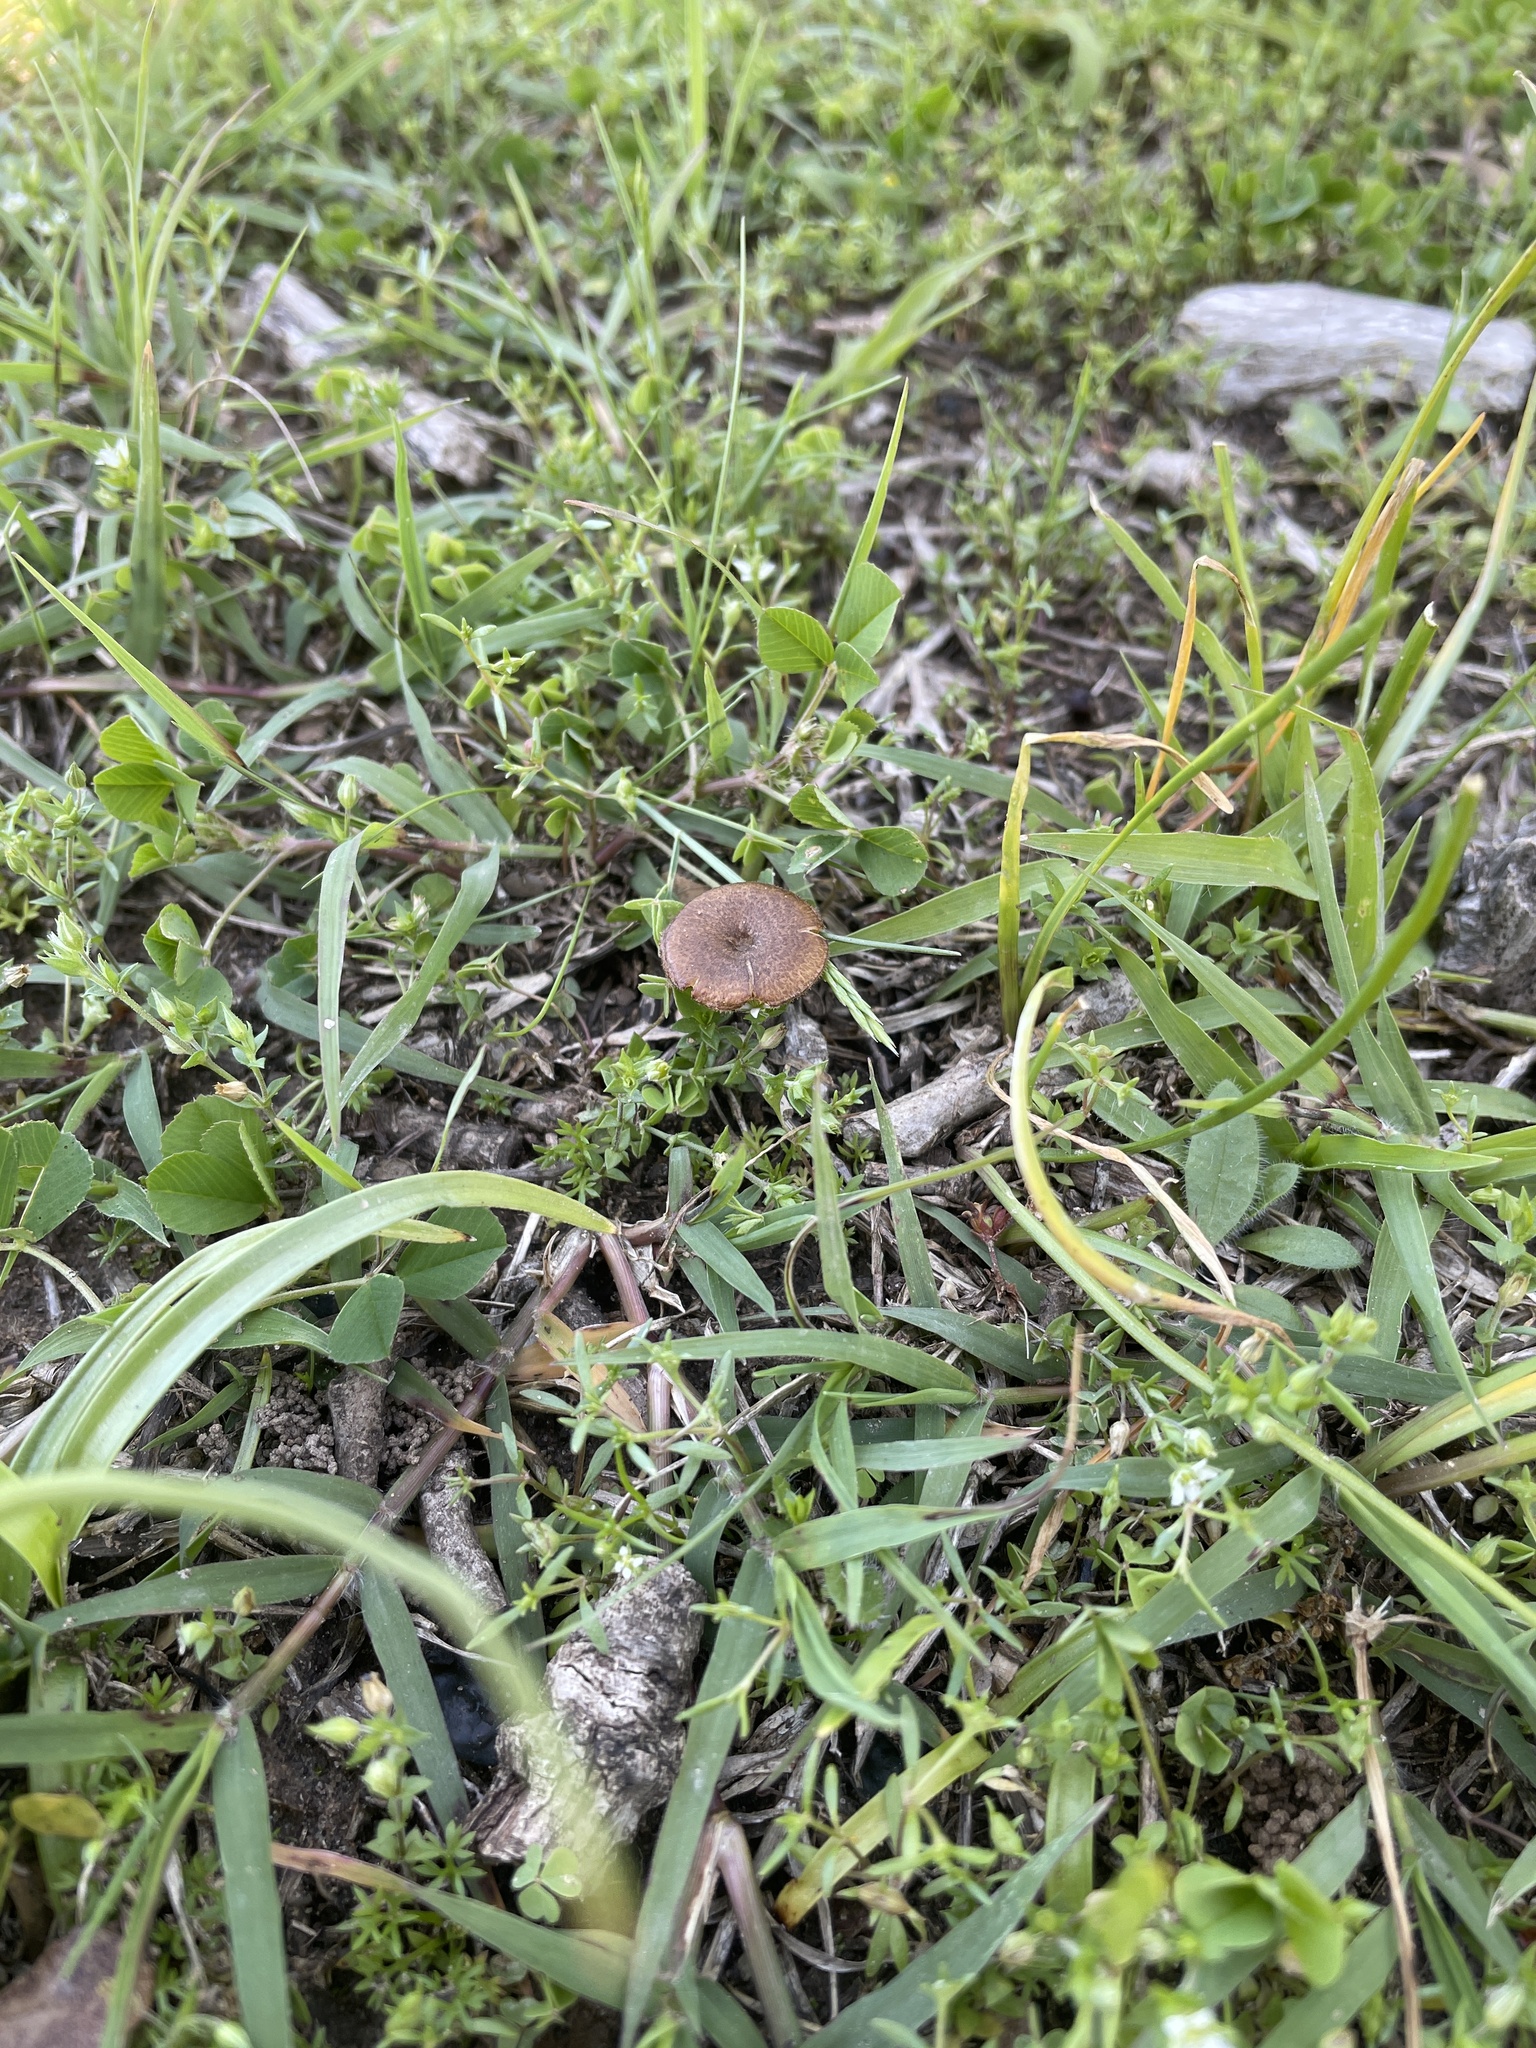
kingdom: Fungi
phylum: Basidiomycota
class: Agaricomycetes
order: Polyporales
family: Polyporaceae
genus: Lentinus
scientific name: Lentinus arcularius
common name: Spring polypore
